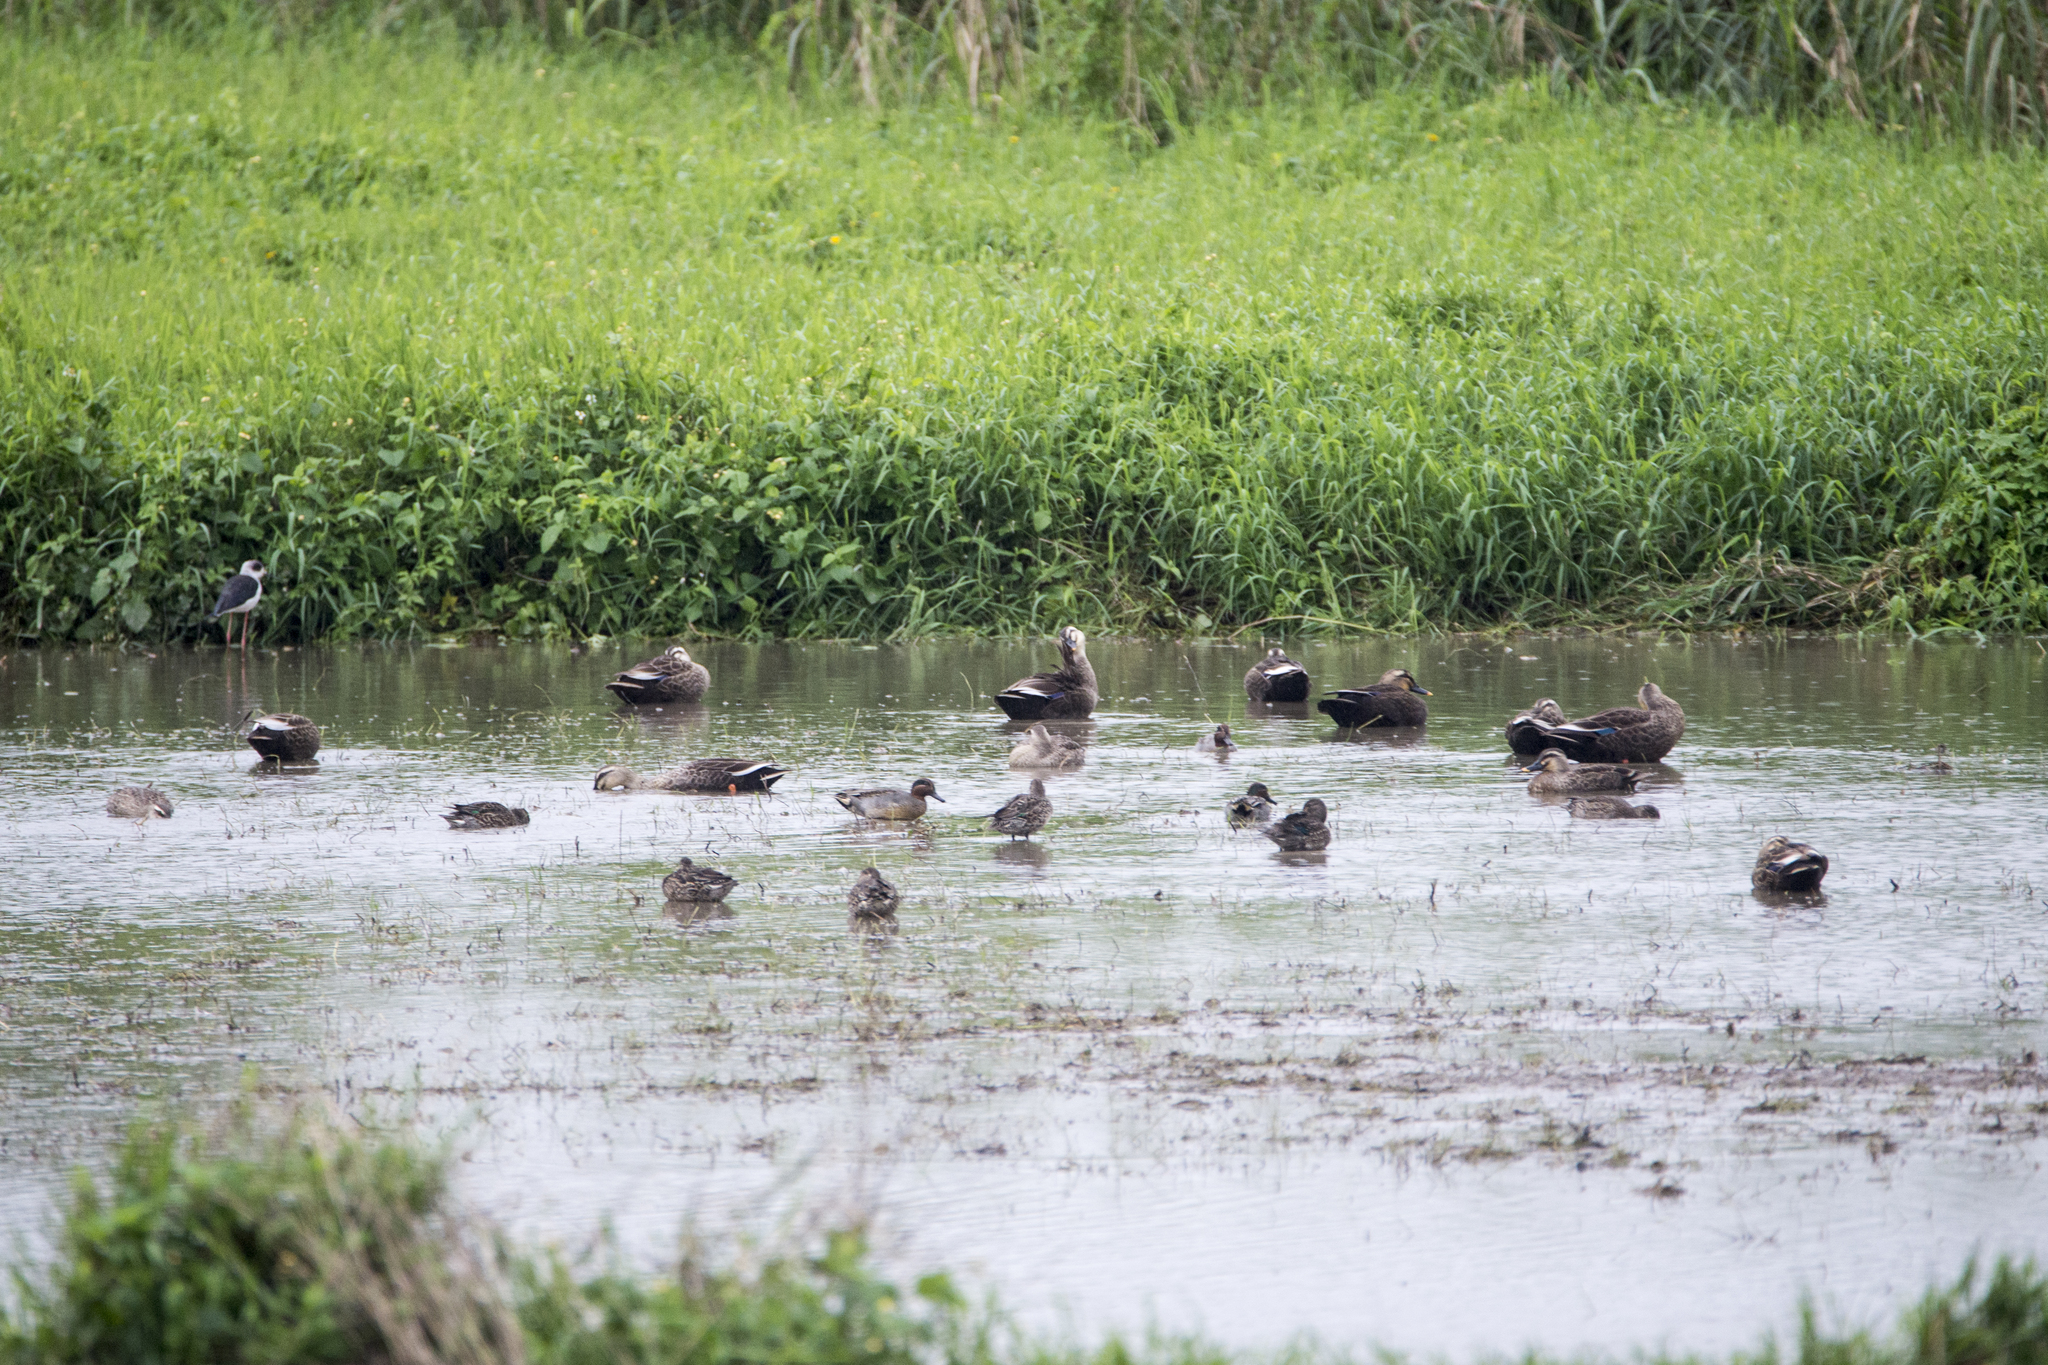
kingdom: Animalia
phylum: Chordata
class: Aves
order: Anseriformes
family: Anatidae
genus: Anas
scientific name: Anas zonorhyncha
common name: Eastern spot-billed duck
